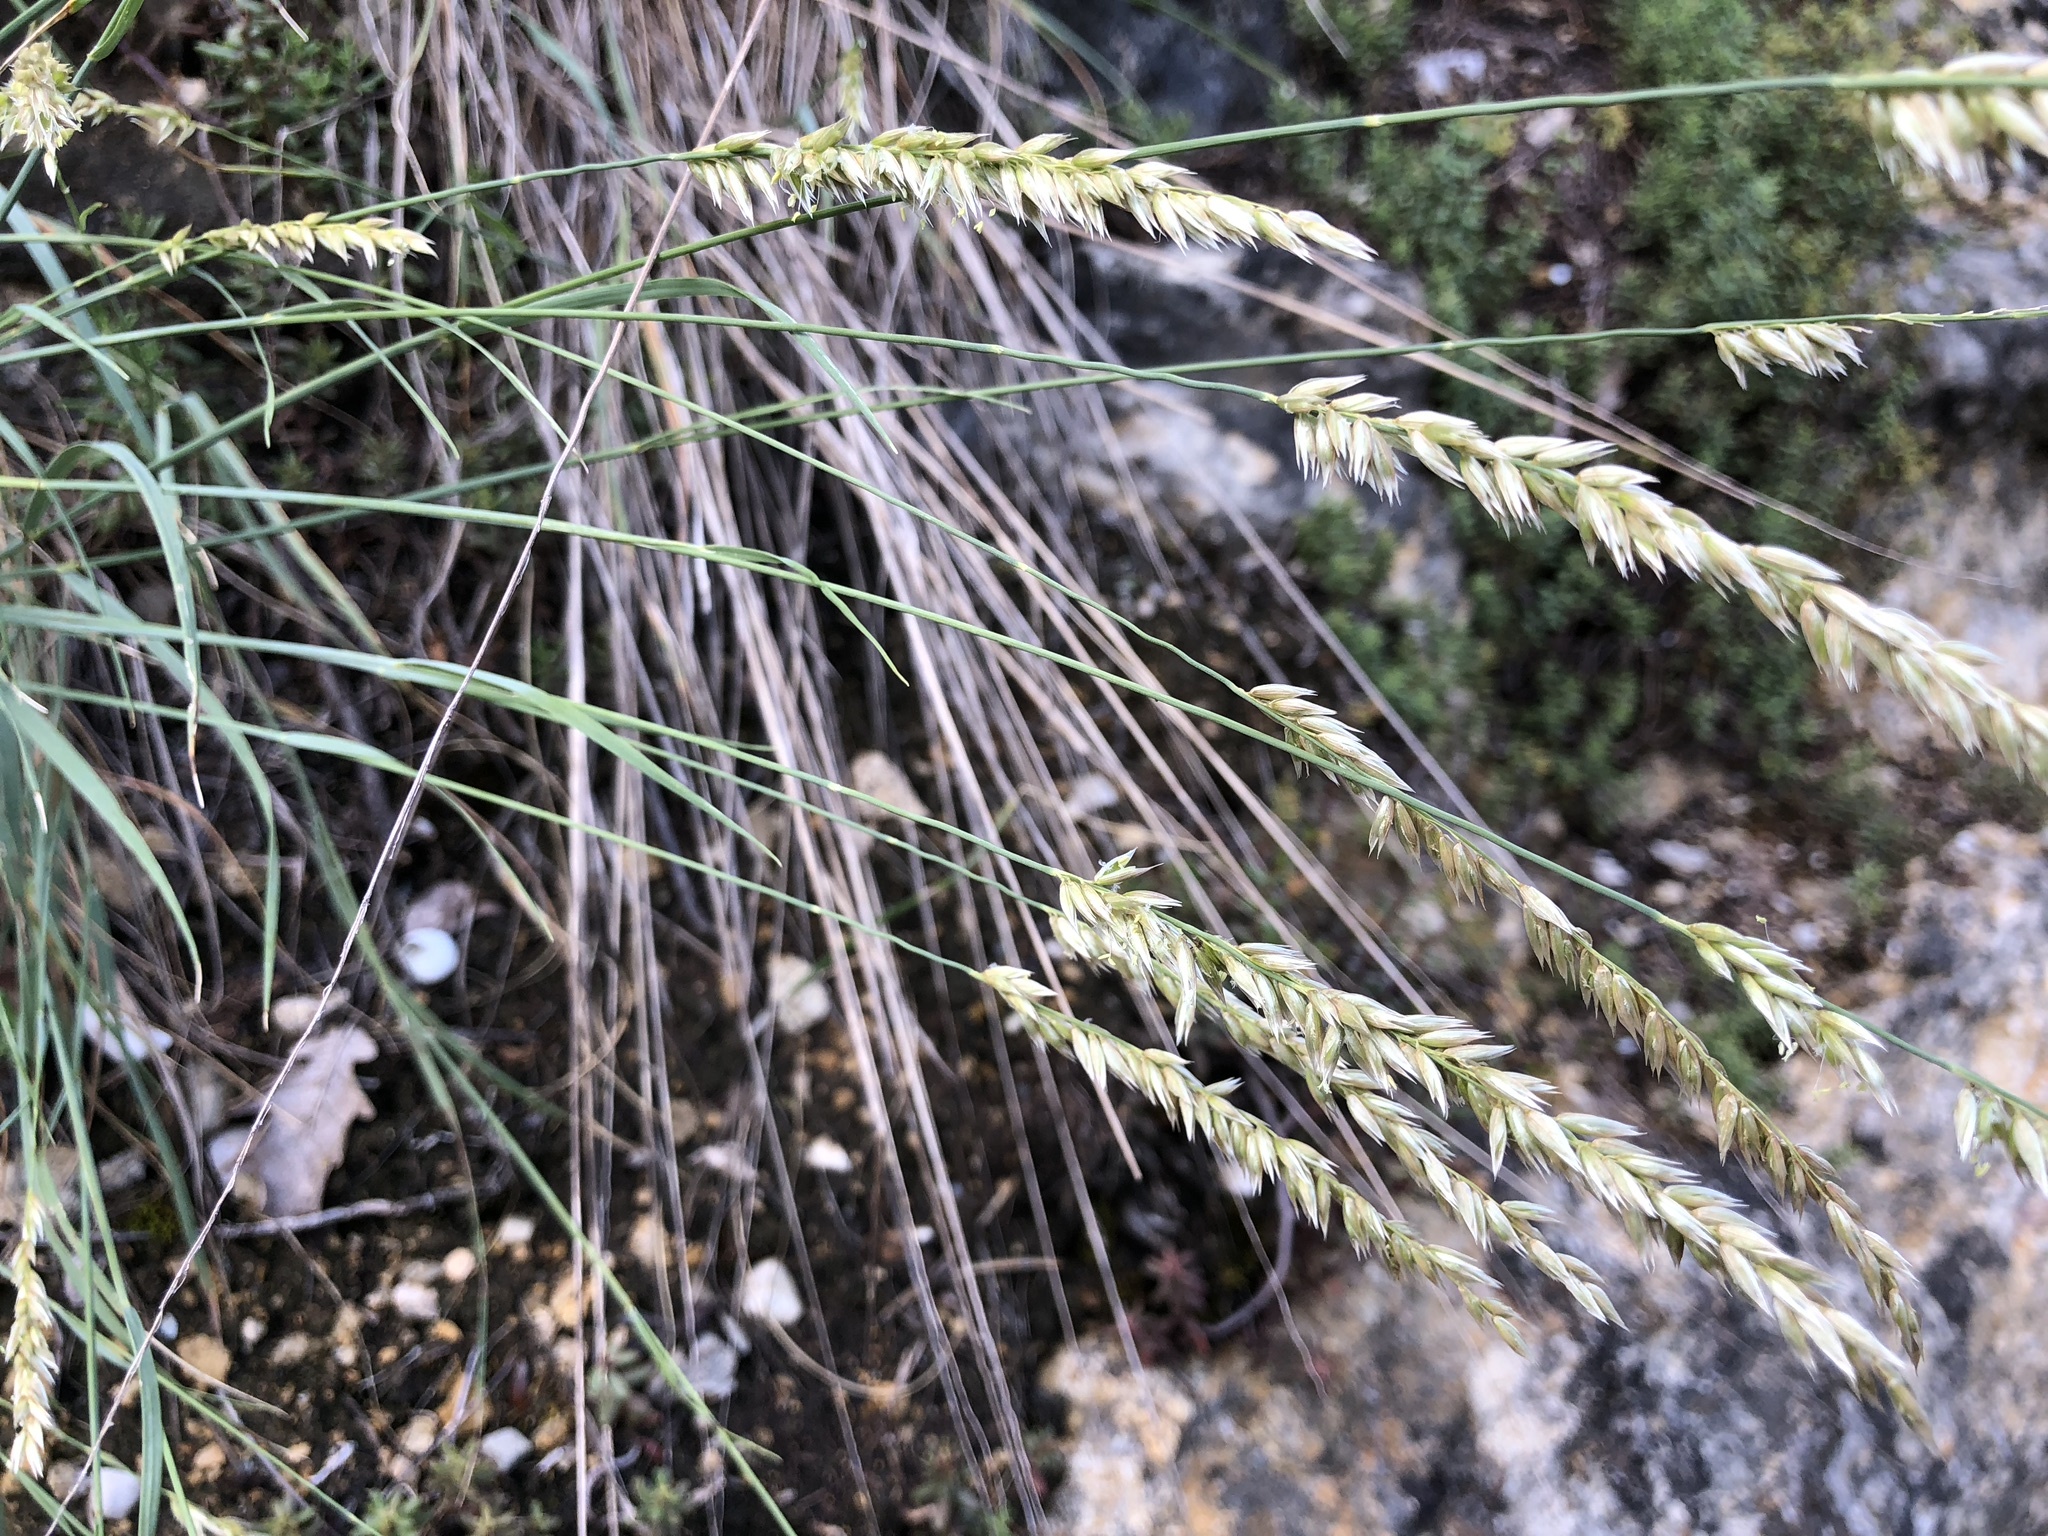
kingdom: Plantae
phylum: Tracheophyta
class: Liliopsida
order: Poales
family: Poaceae
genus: Melica
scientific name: Melica ciliata
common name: Hairy melicgrass
